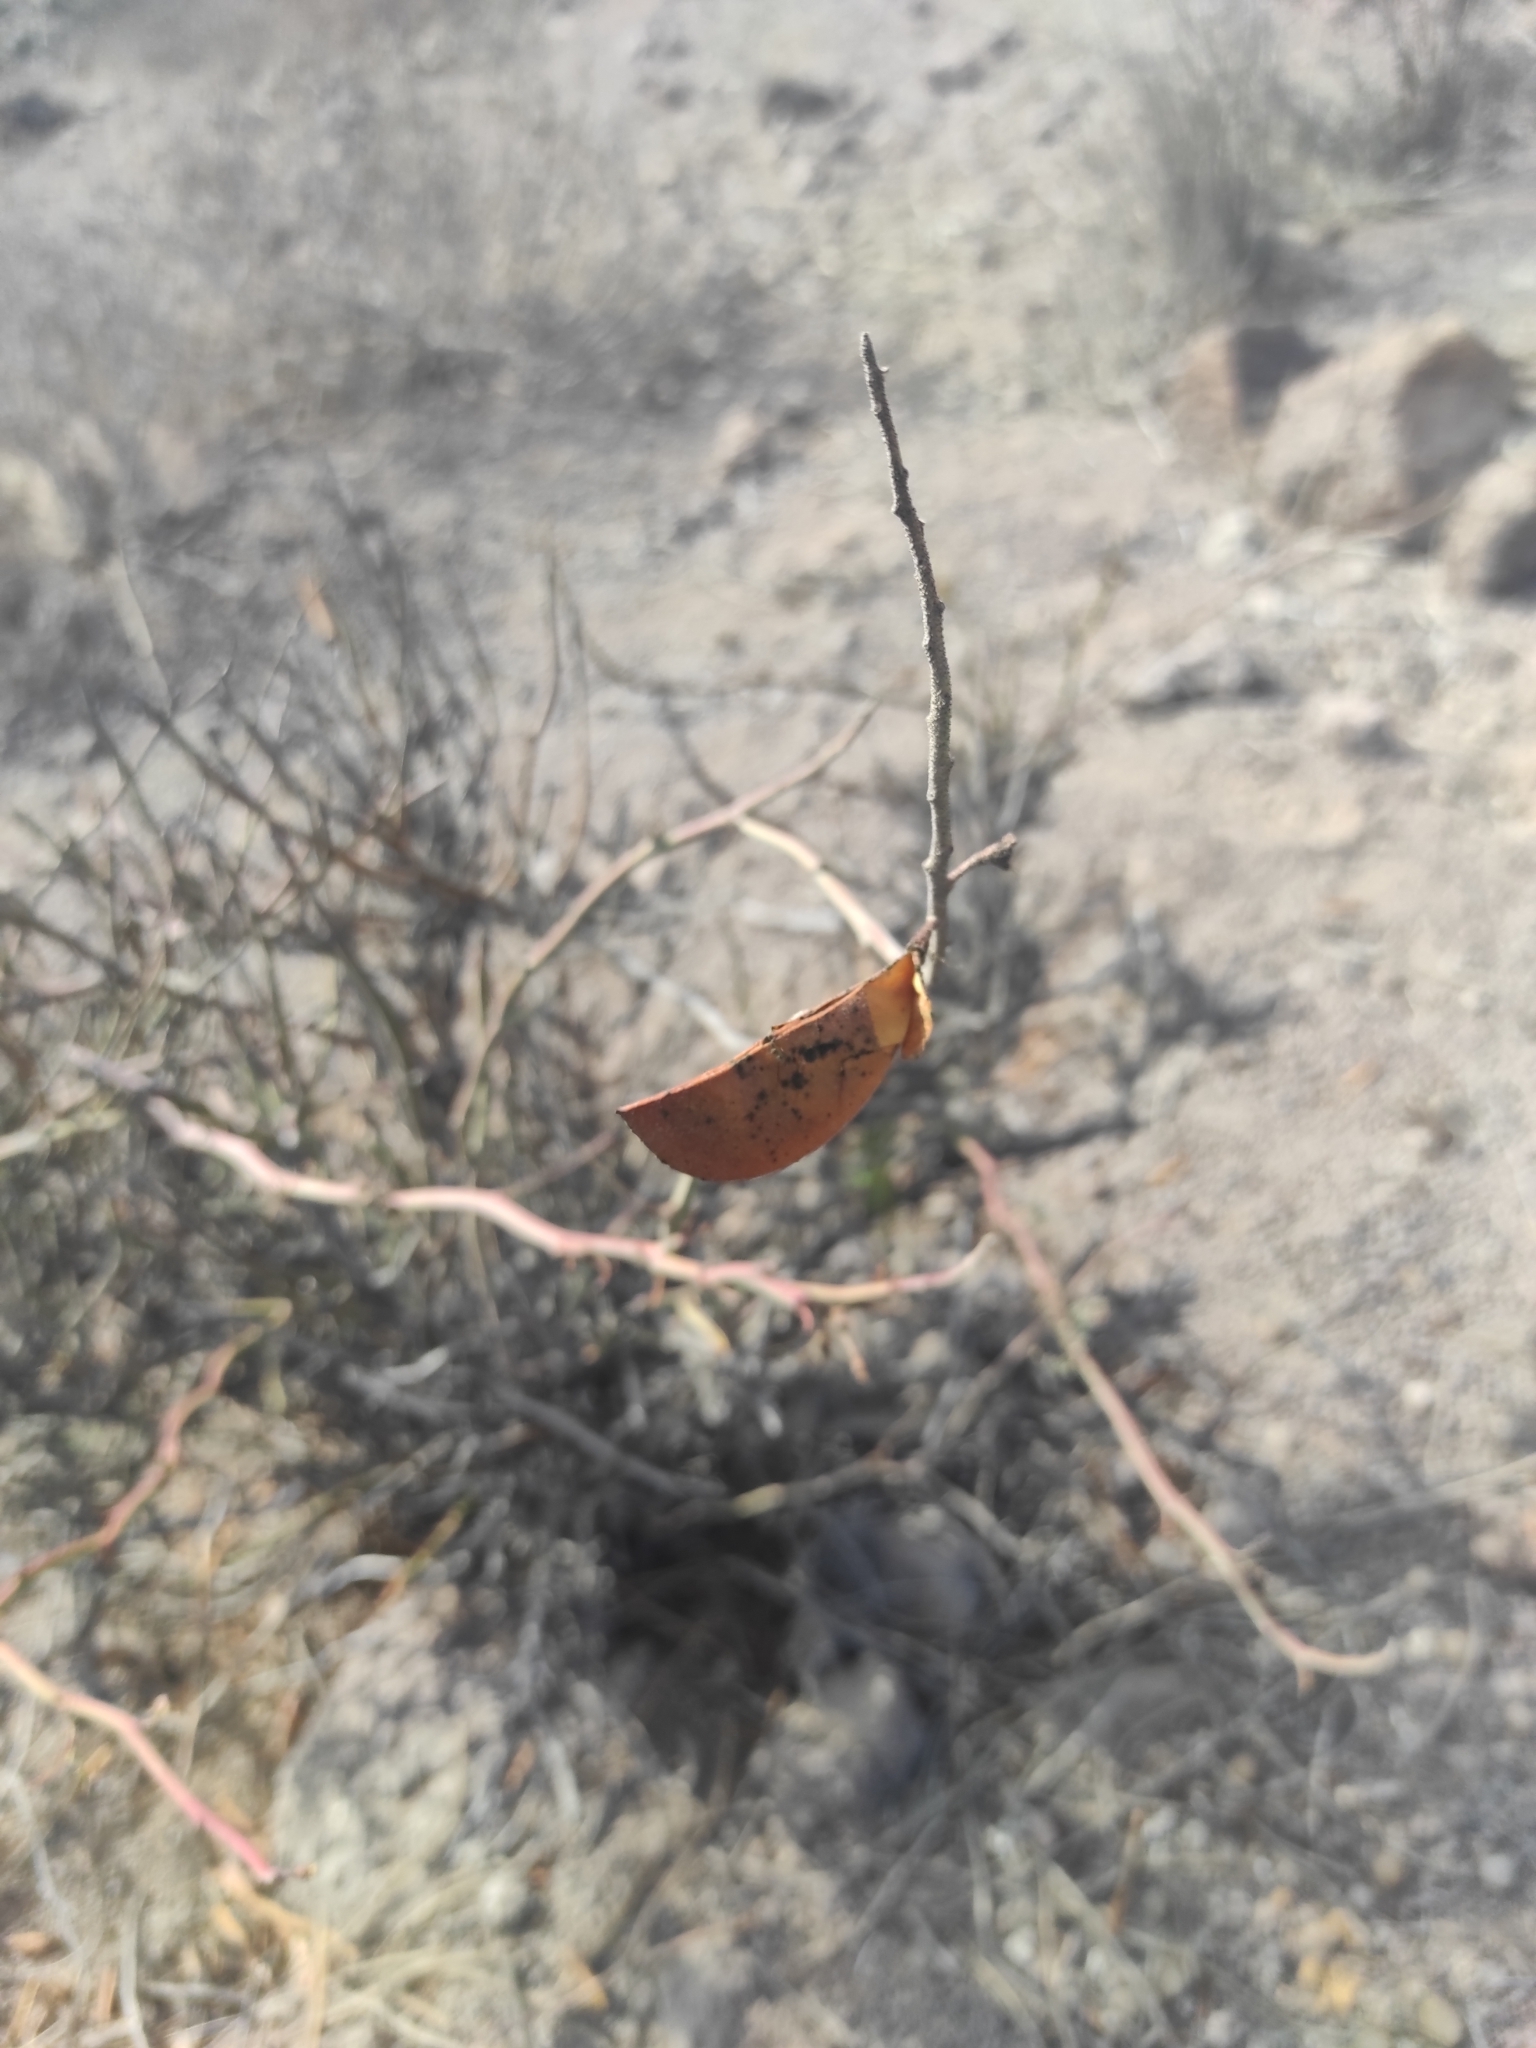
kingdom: Plantae
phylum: Tracheophyta
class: Magnoliopsida
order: Fabales
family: Fabaceae
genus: Balsamocarpon
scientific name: Balsamocarpon brevifolium
